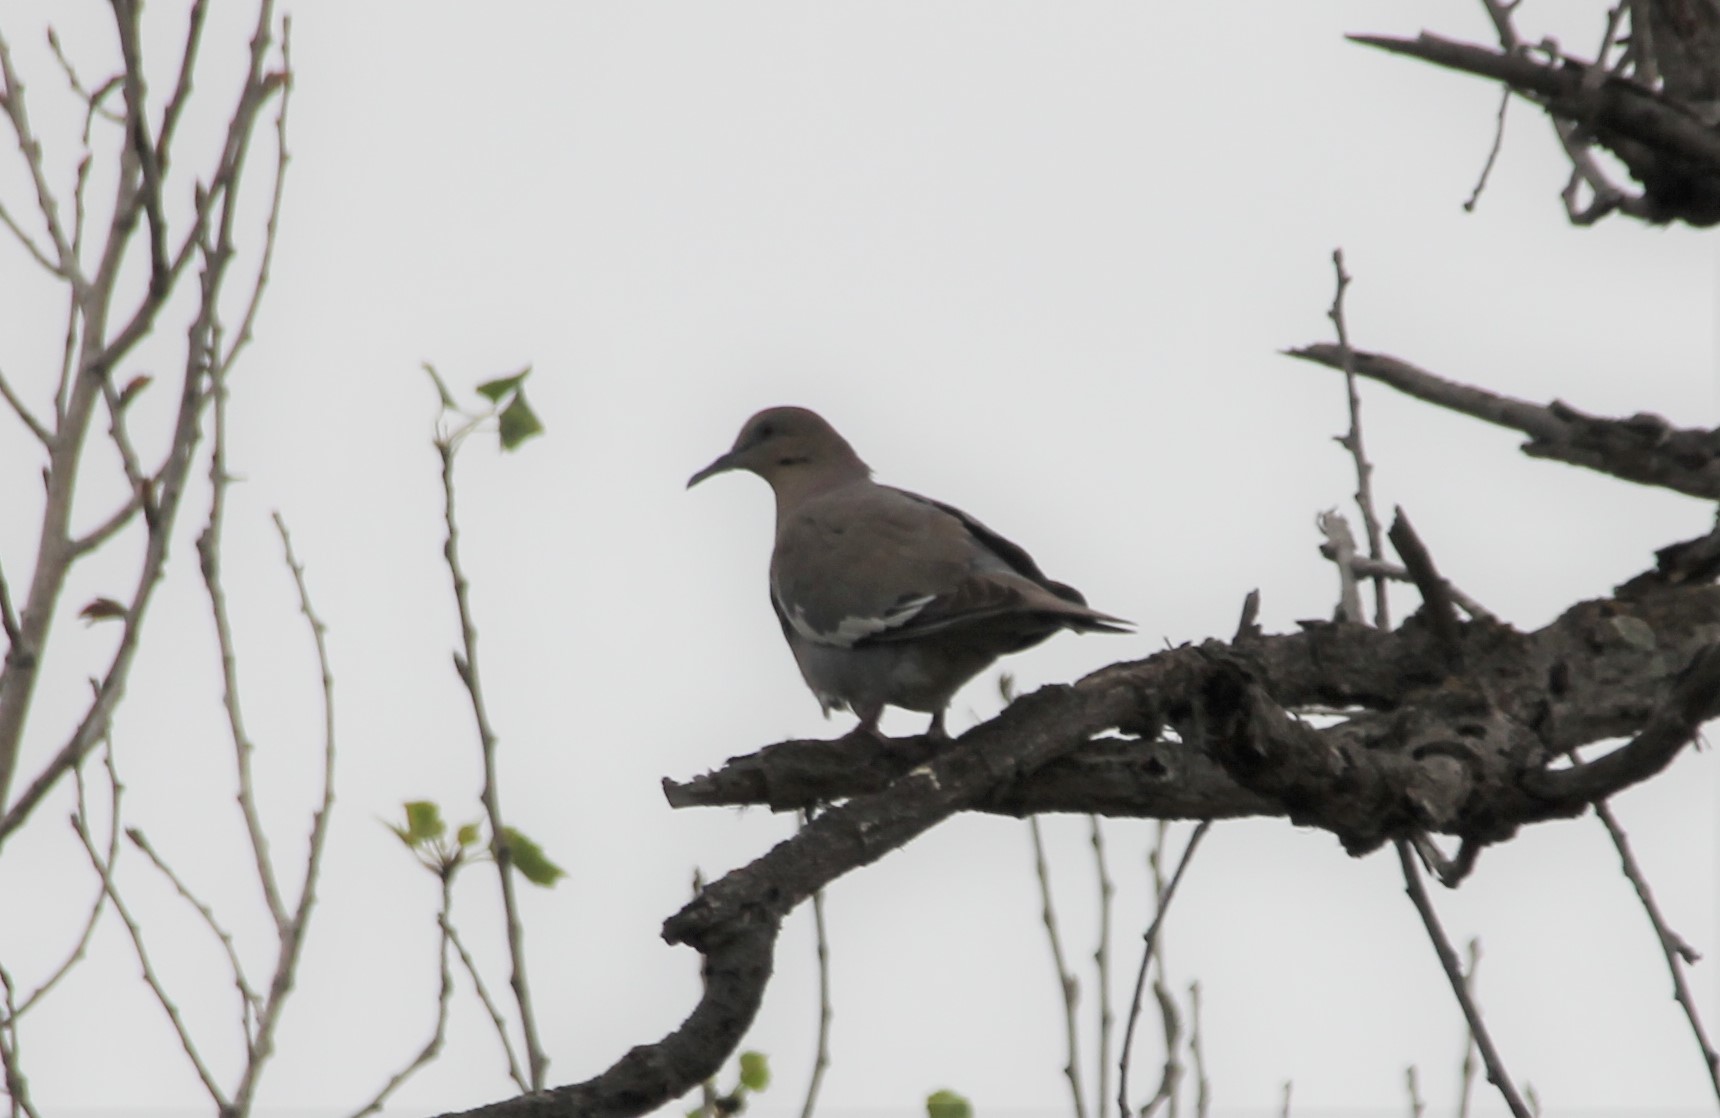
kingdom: Animalia
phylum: Chordata
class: Aves
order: Columbiformes
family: Columbidae
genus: Zenaida
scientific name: Zenaida asiatica
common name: White-winged dove
